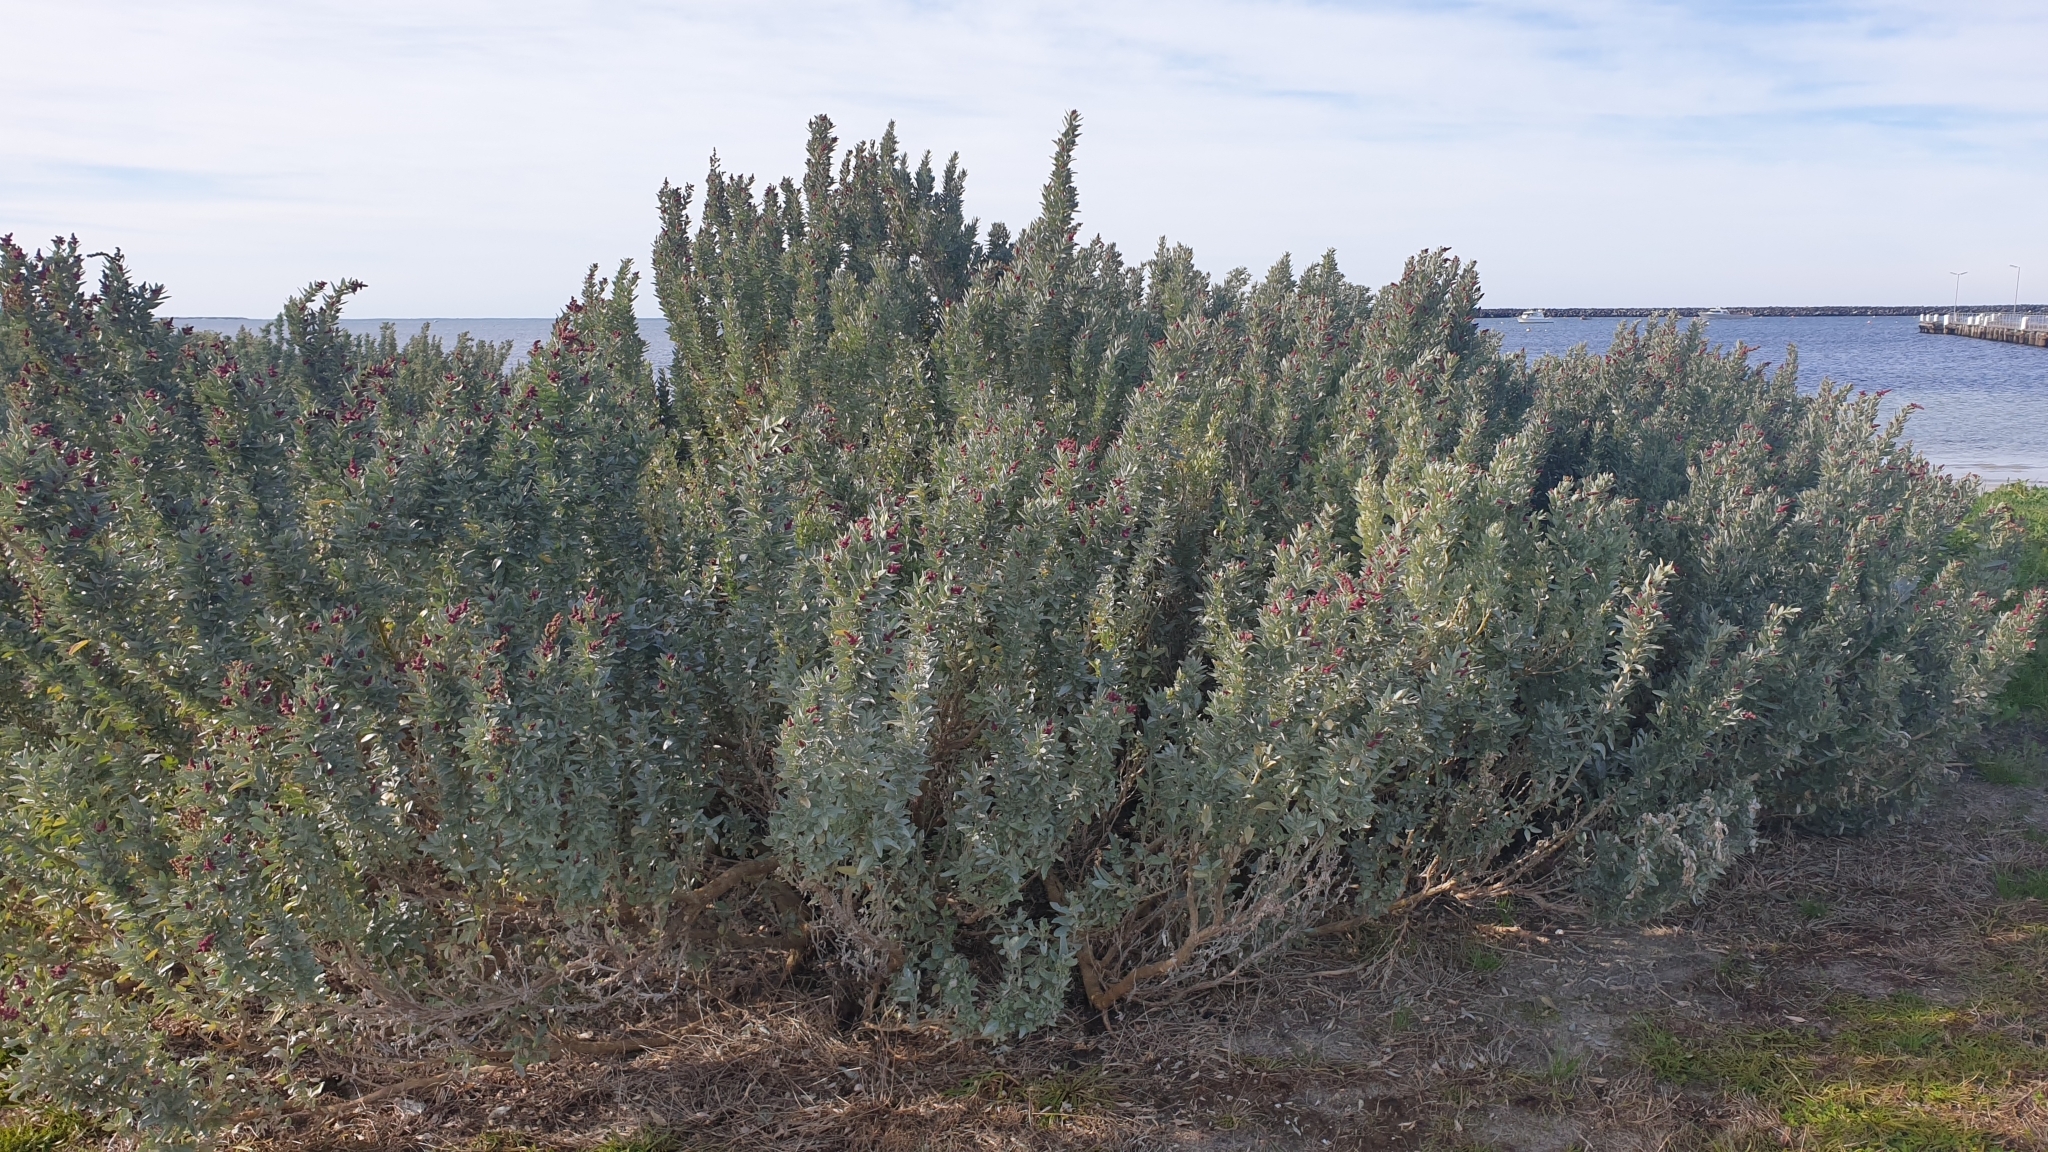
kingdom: Plantae
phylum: Tracheophyta
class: Magnoliopsida
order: Caryophyllales
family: Amaranthaceae
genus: Atriplex
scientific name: Atriplex cinerea
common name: Grey saltbush
